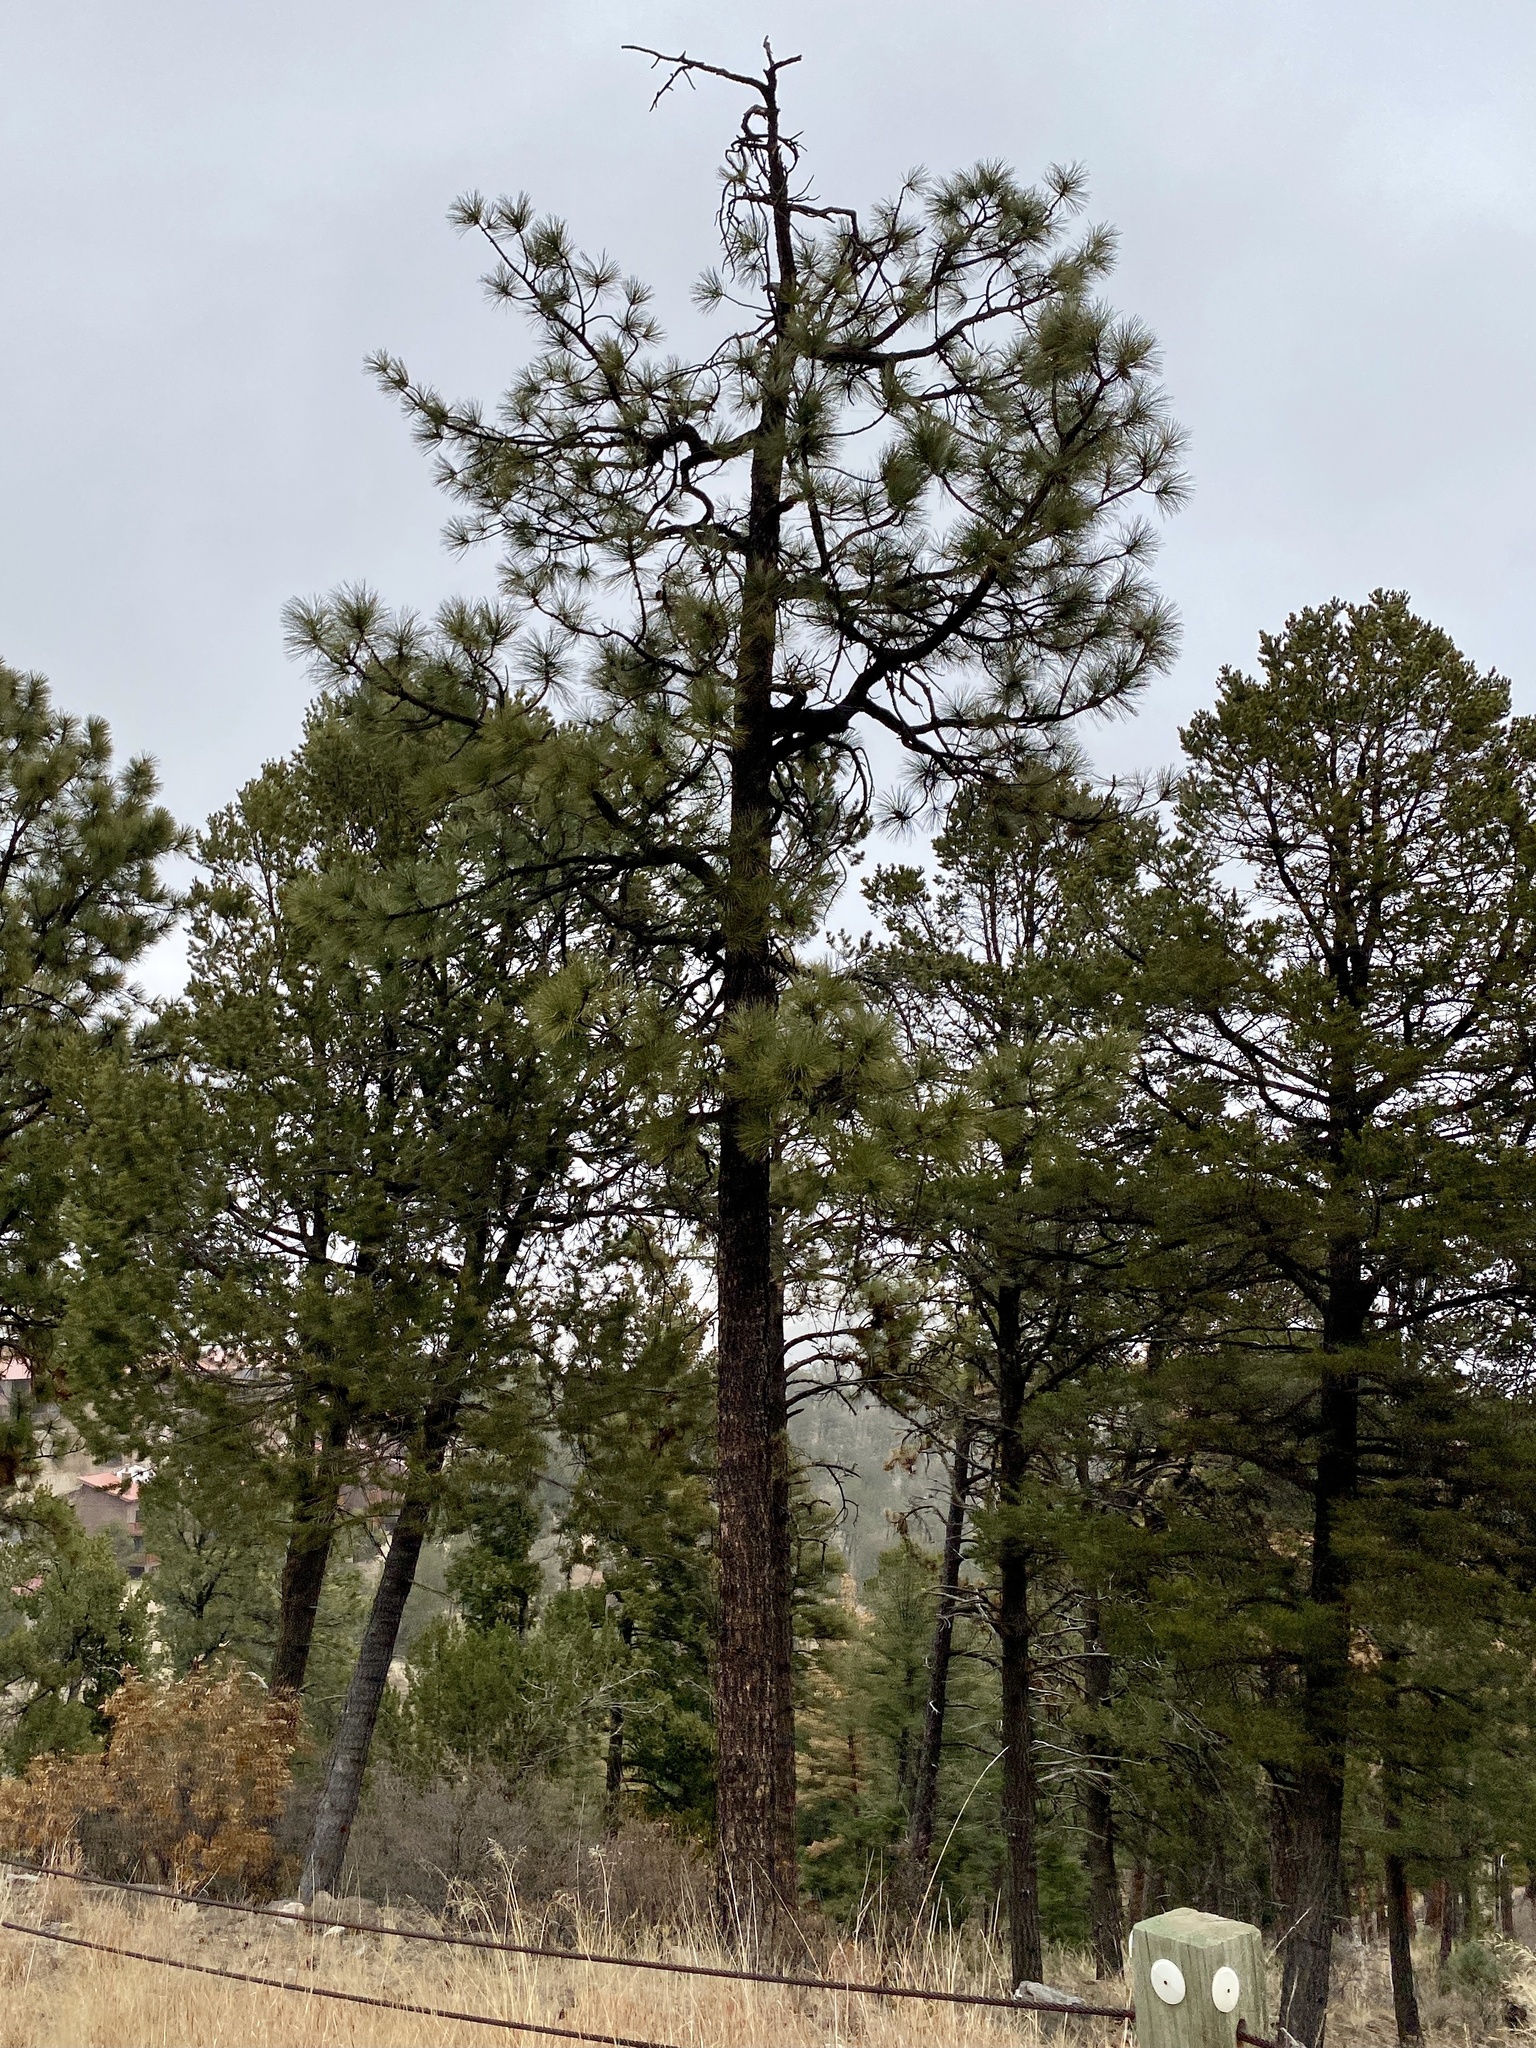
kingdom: Plantae
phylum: Tracheophyta
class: Pinopsida
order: Pinales
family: Pinaceae
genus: Pinus
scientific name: Pinus ponderosa
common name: Western yellow-pine
